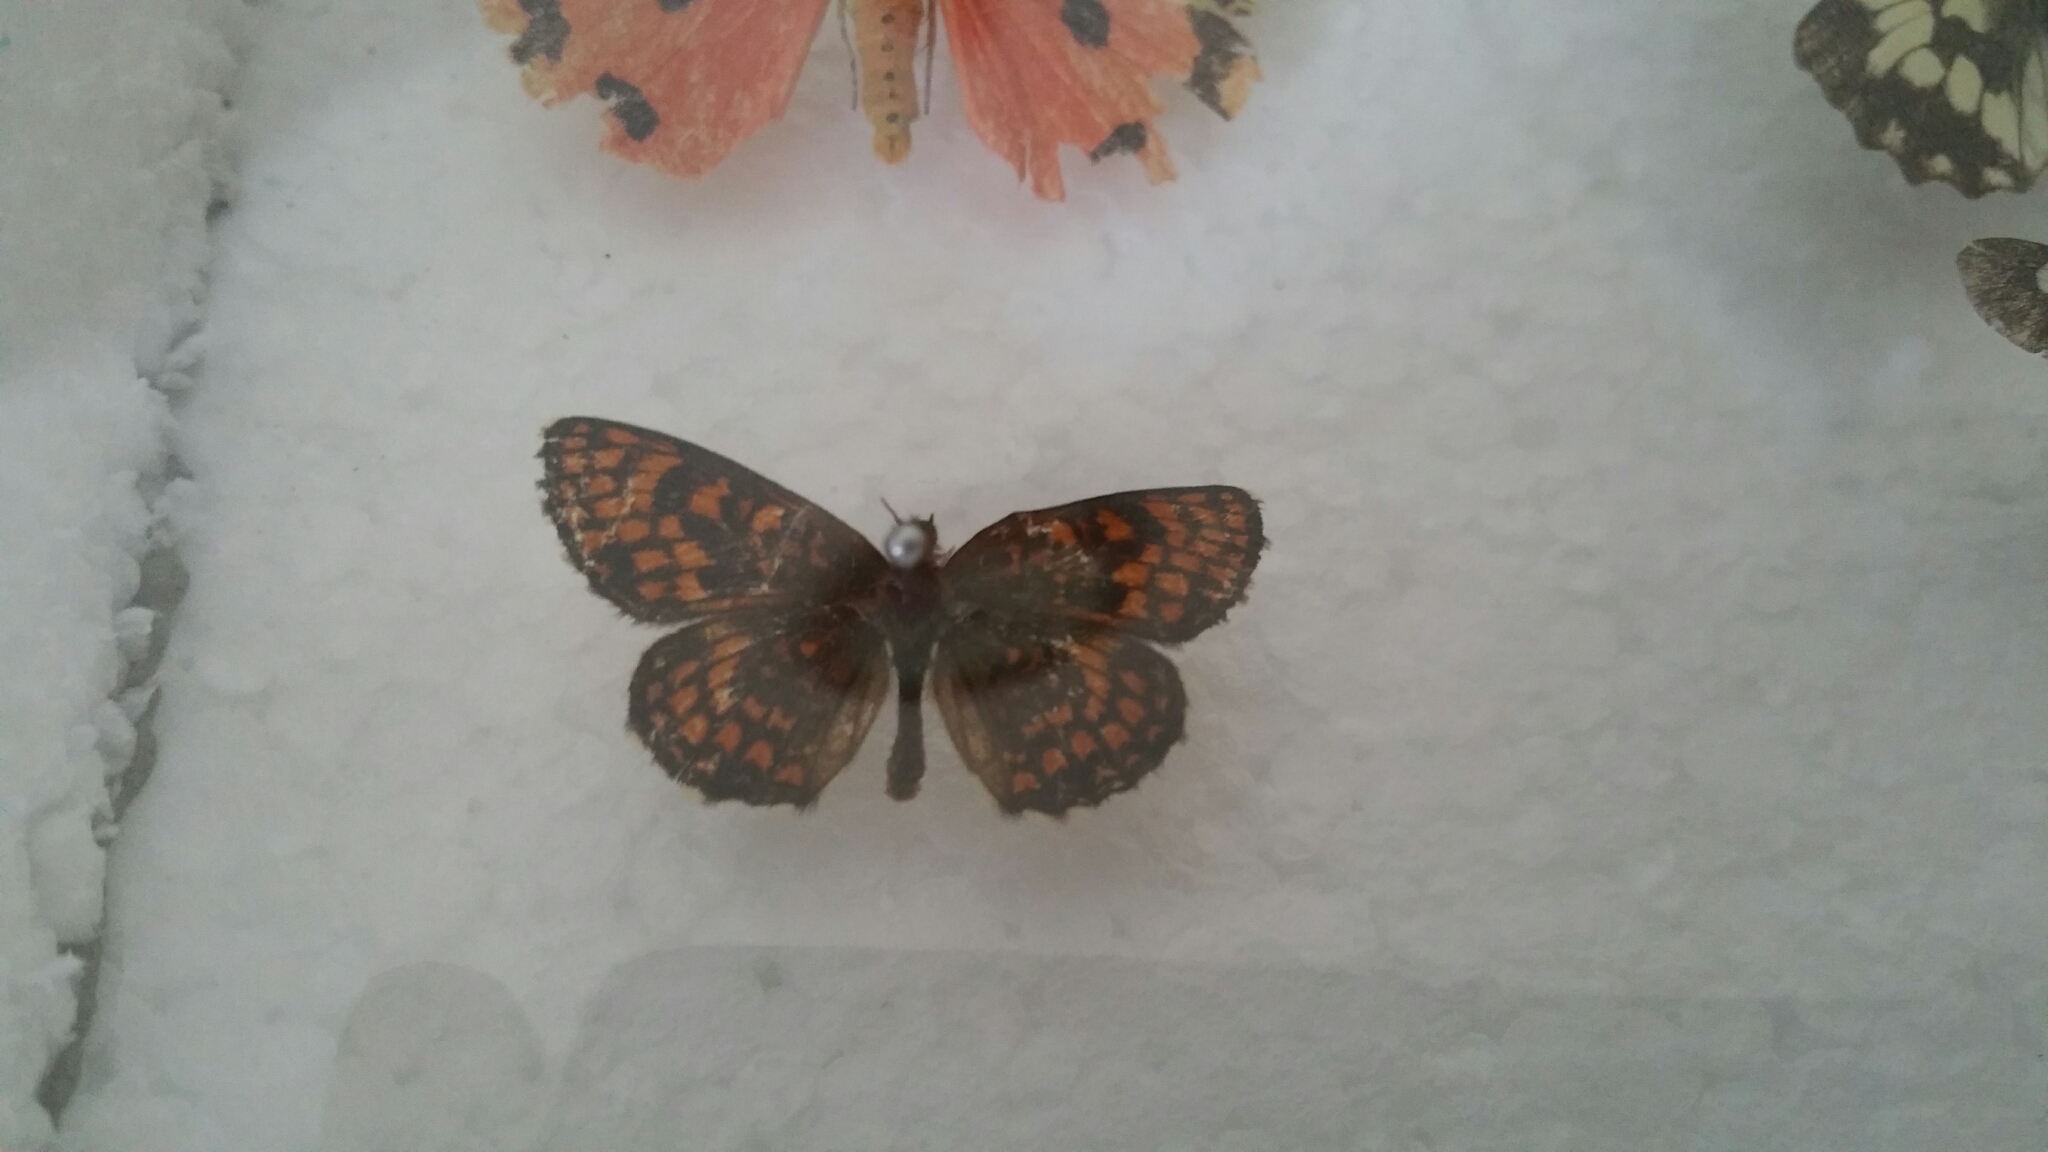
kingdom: Animalia
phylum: Arthropoda
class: Insecta
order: Lepidoptera
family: Nymphalidae
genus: Melitaea
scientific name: Melitaea athalia
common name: Heath fritillary
